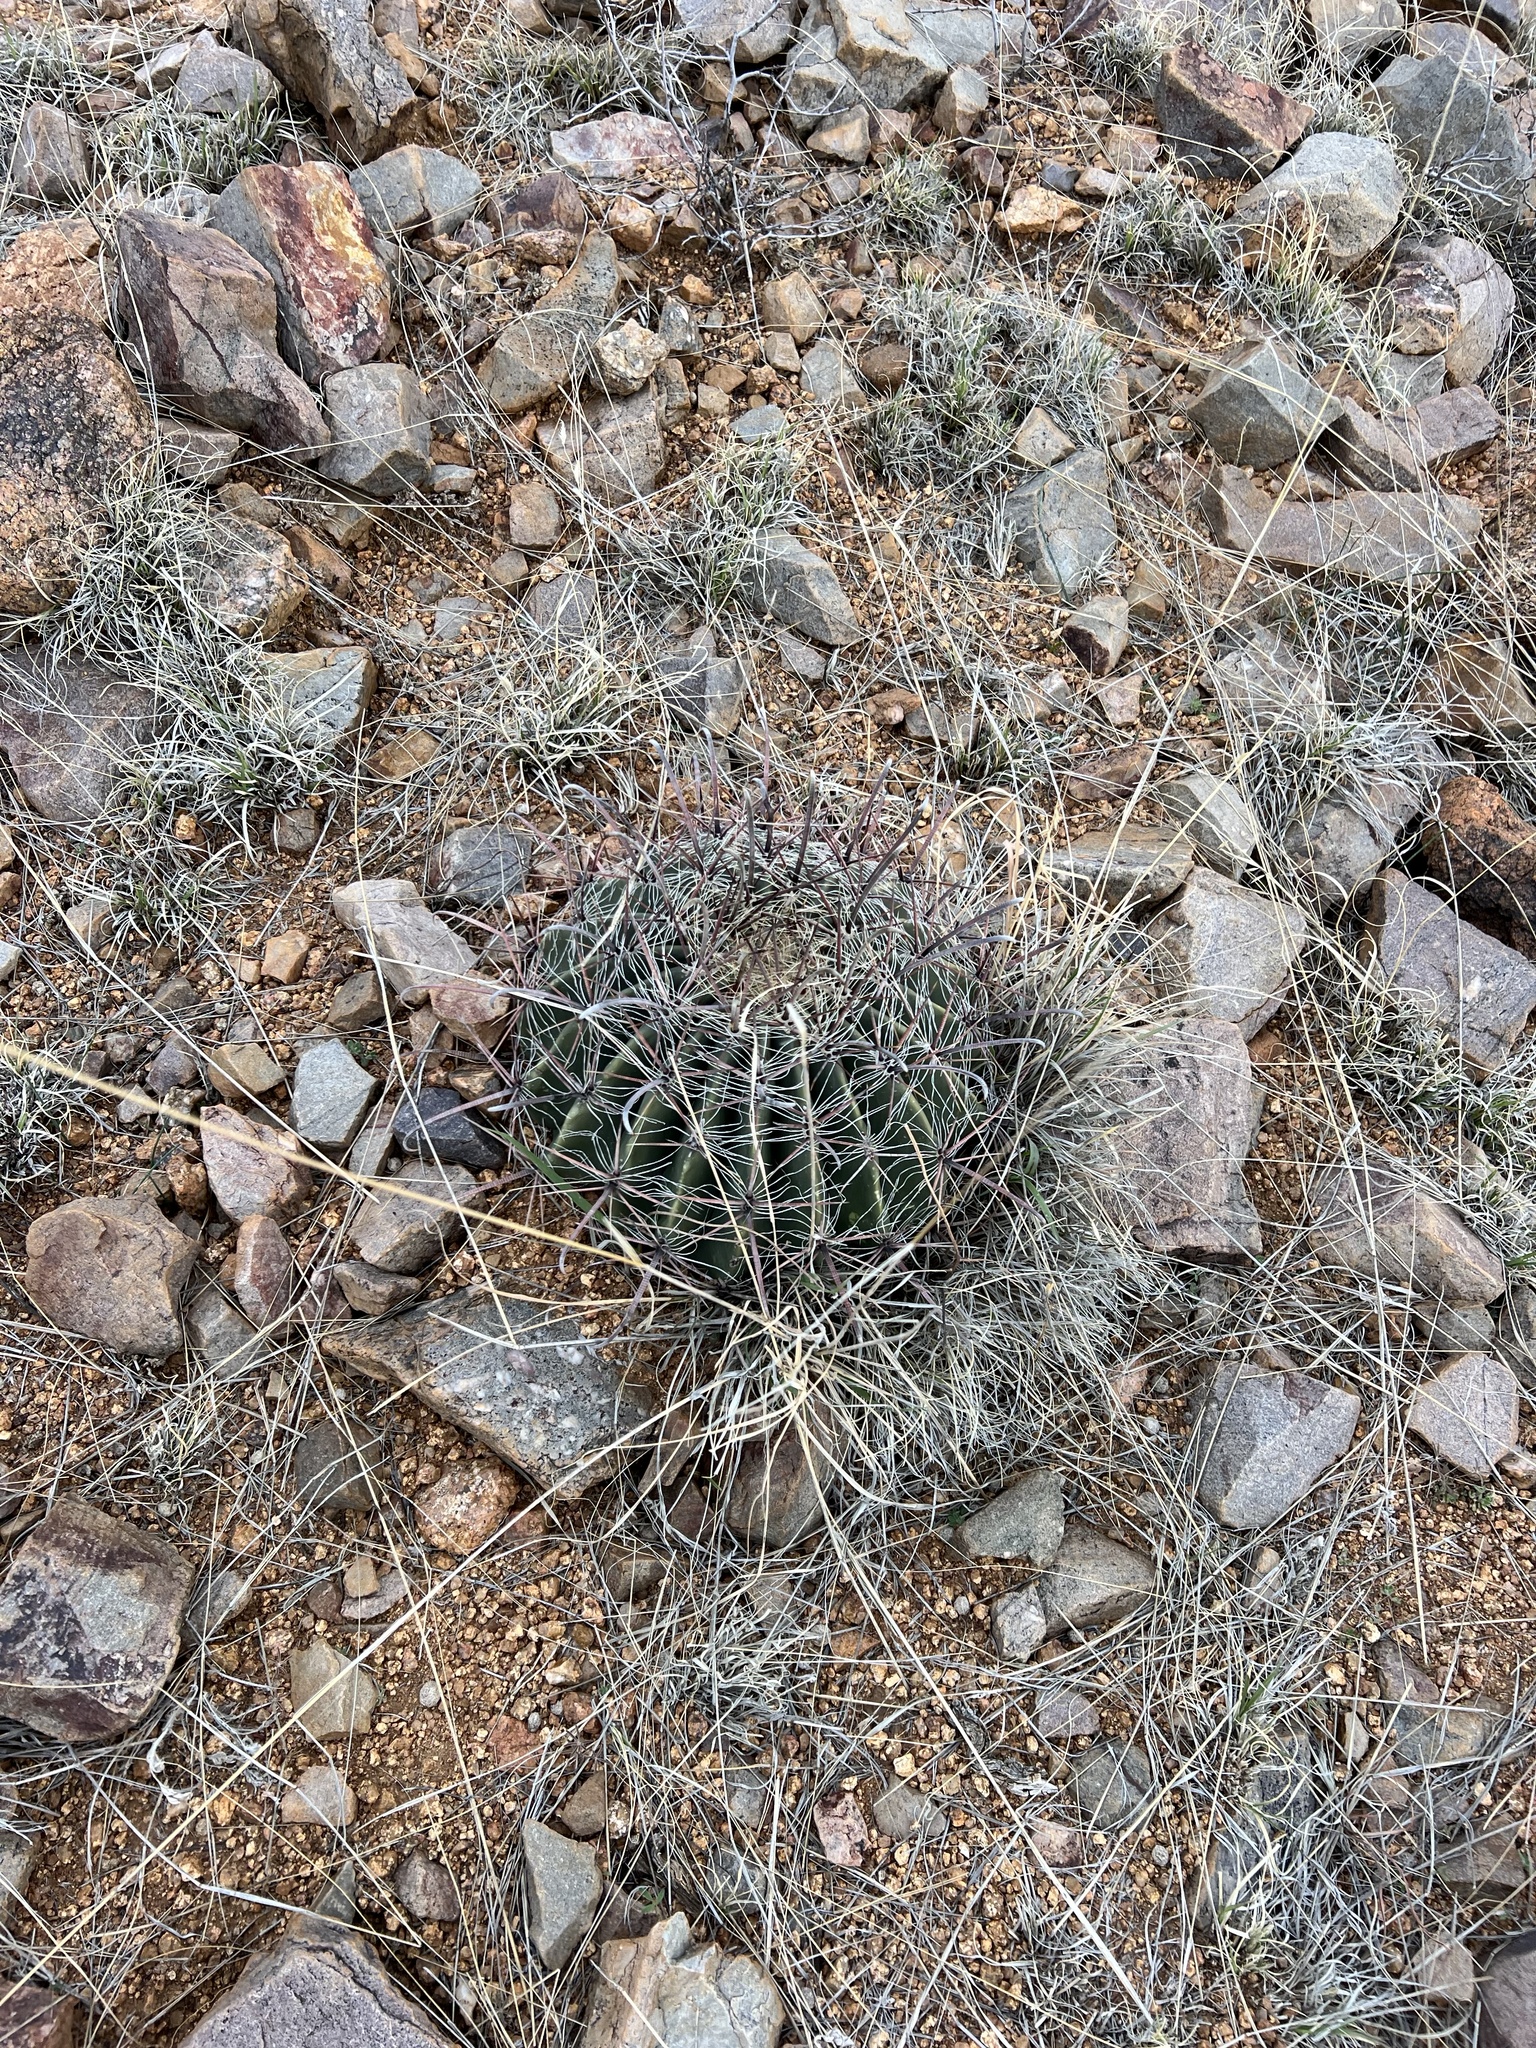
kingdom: Plantae
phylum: Tracheophyta
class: Magnoliopsida
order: Caryophyllales
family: Cactaceae
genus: Ferocactus
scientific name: Ferocactus wislizeni
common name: Candy barrel cactus
